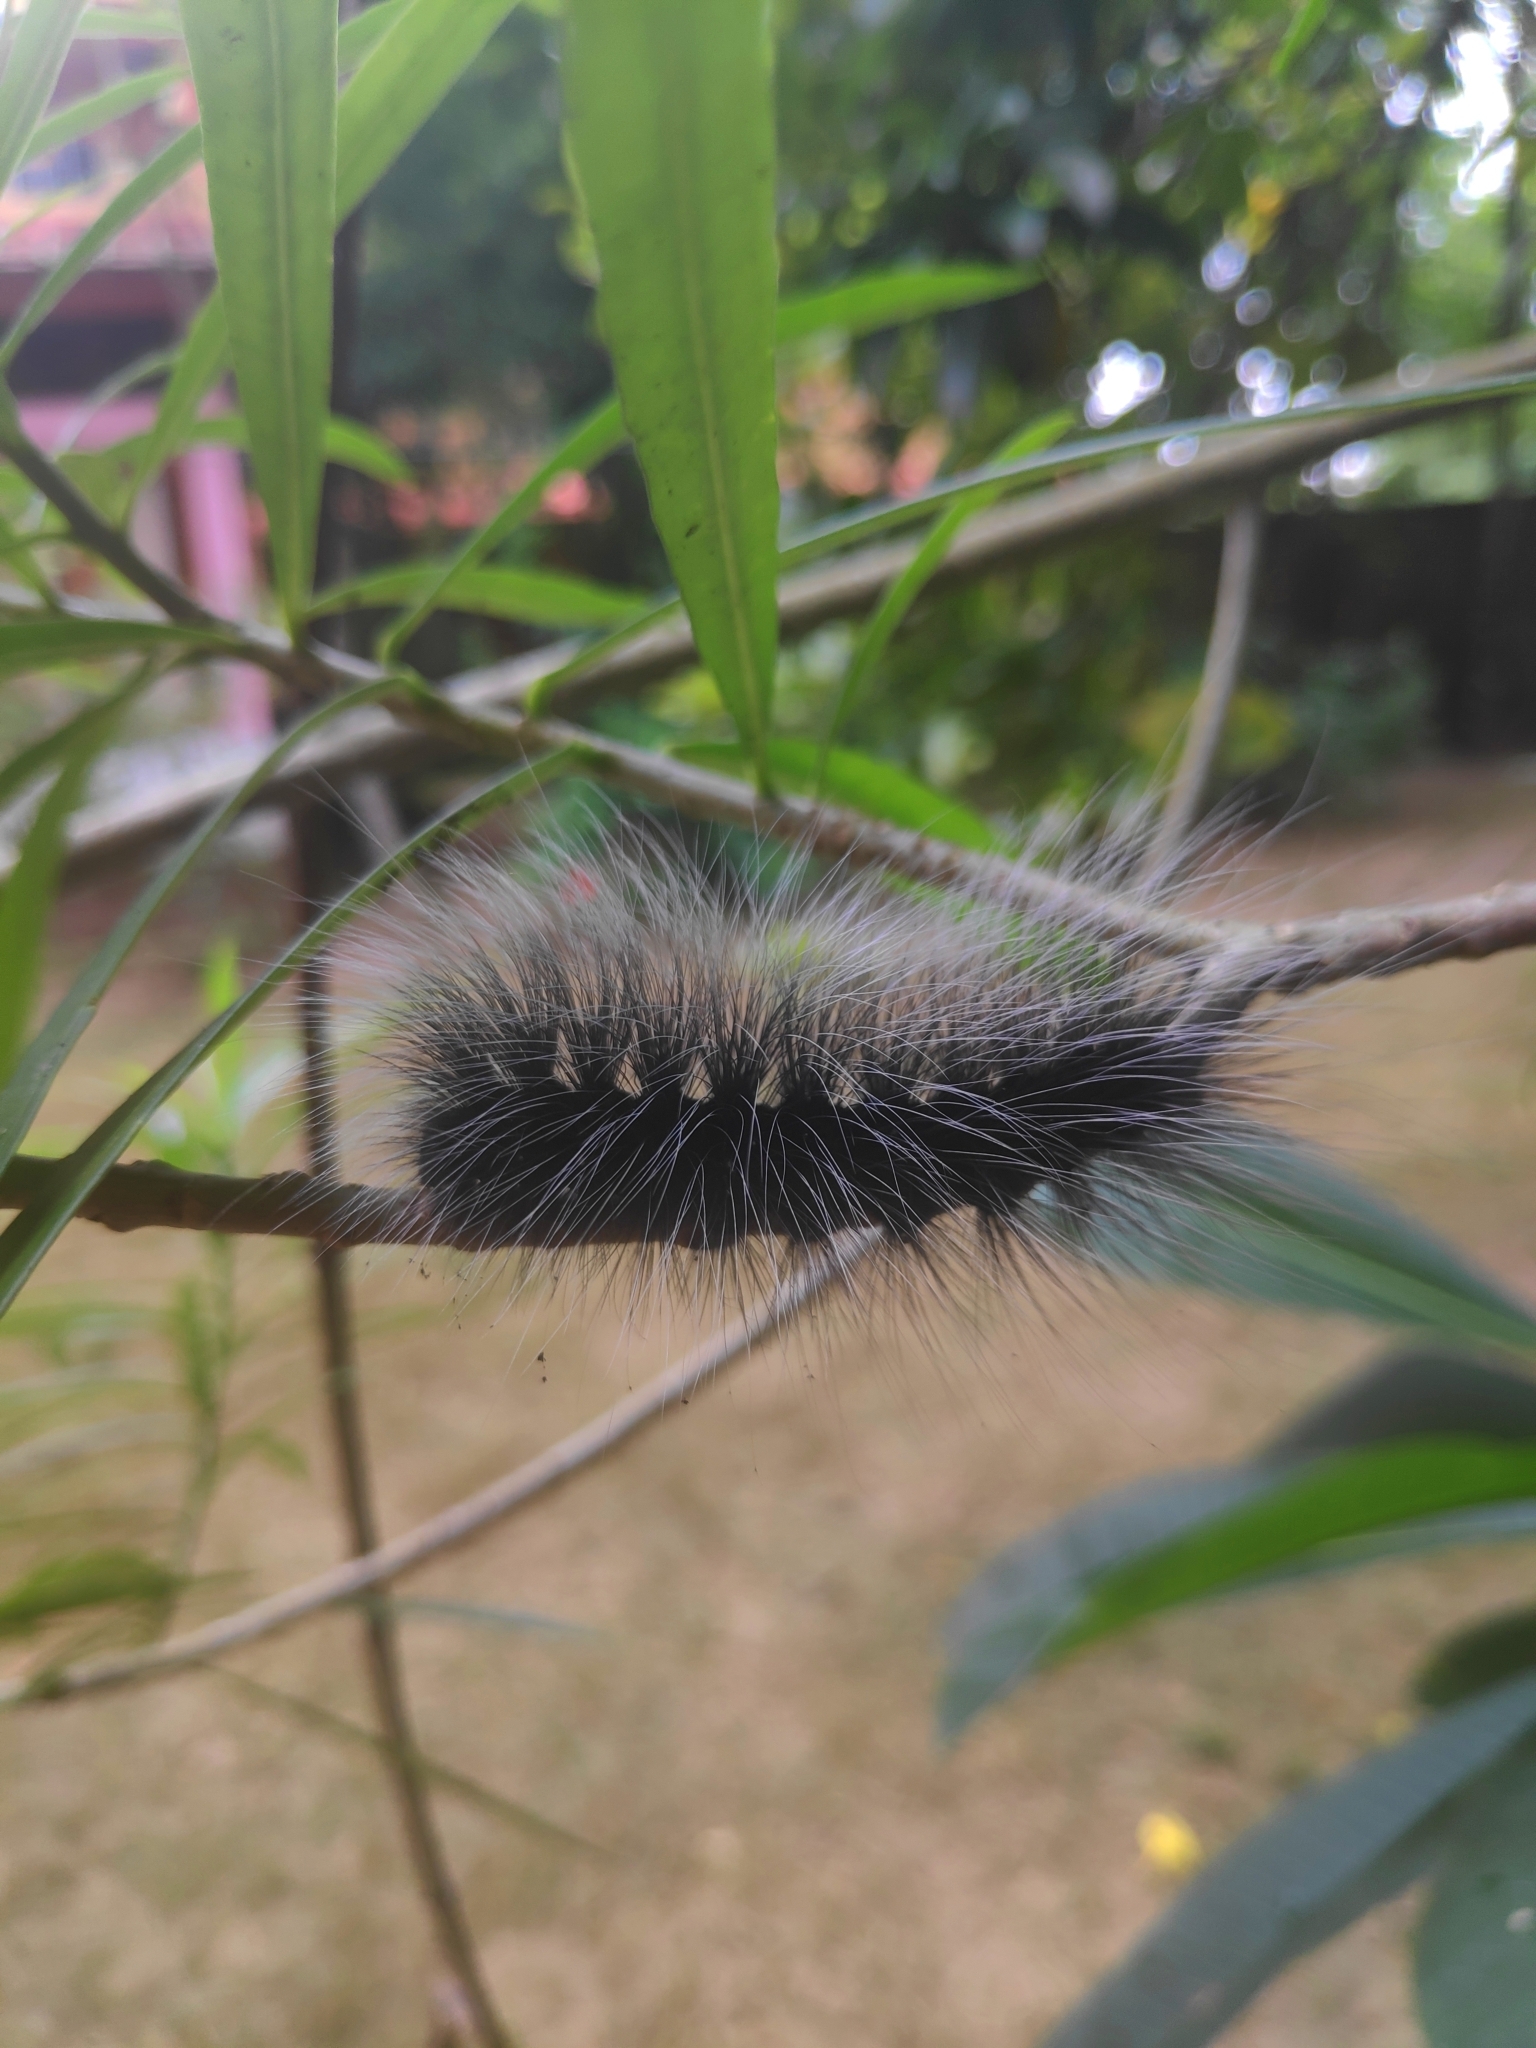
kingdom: Animalia
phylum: Arthropoda
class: Insecta
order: Lepidoptera
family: Erebidae
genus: Macrobrochis
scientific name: Macrobrochis gigas
